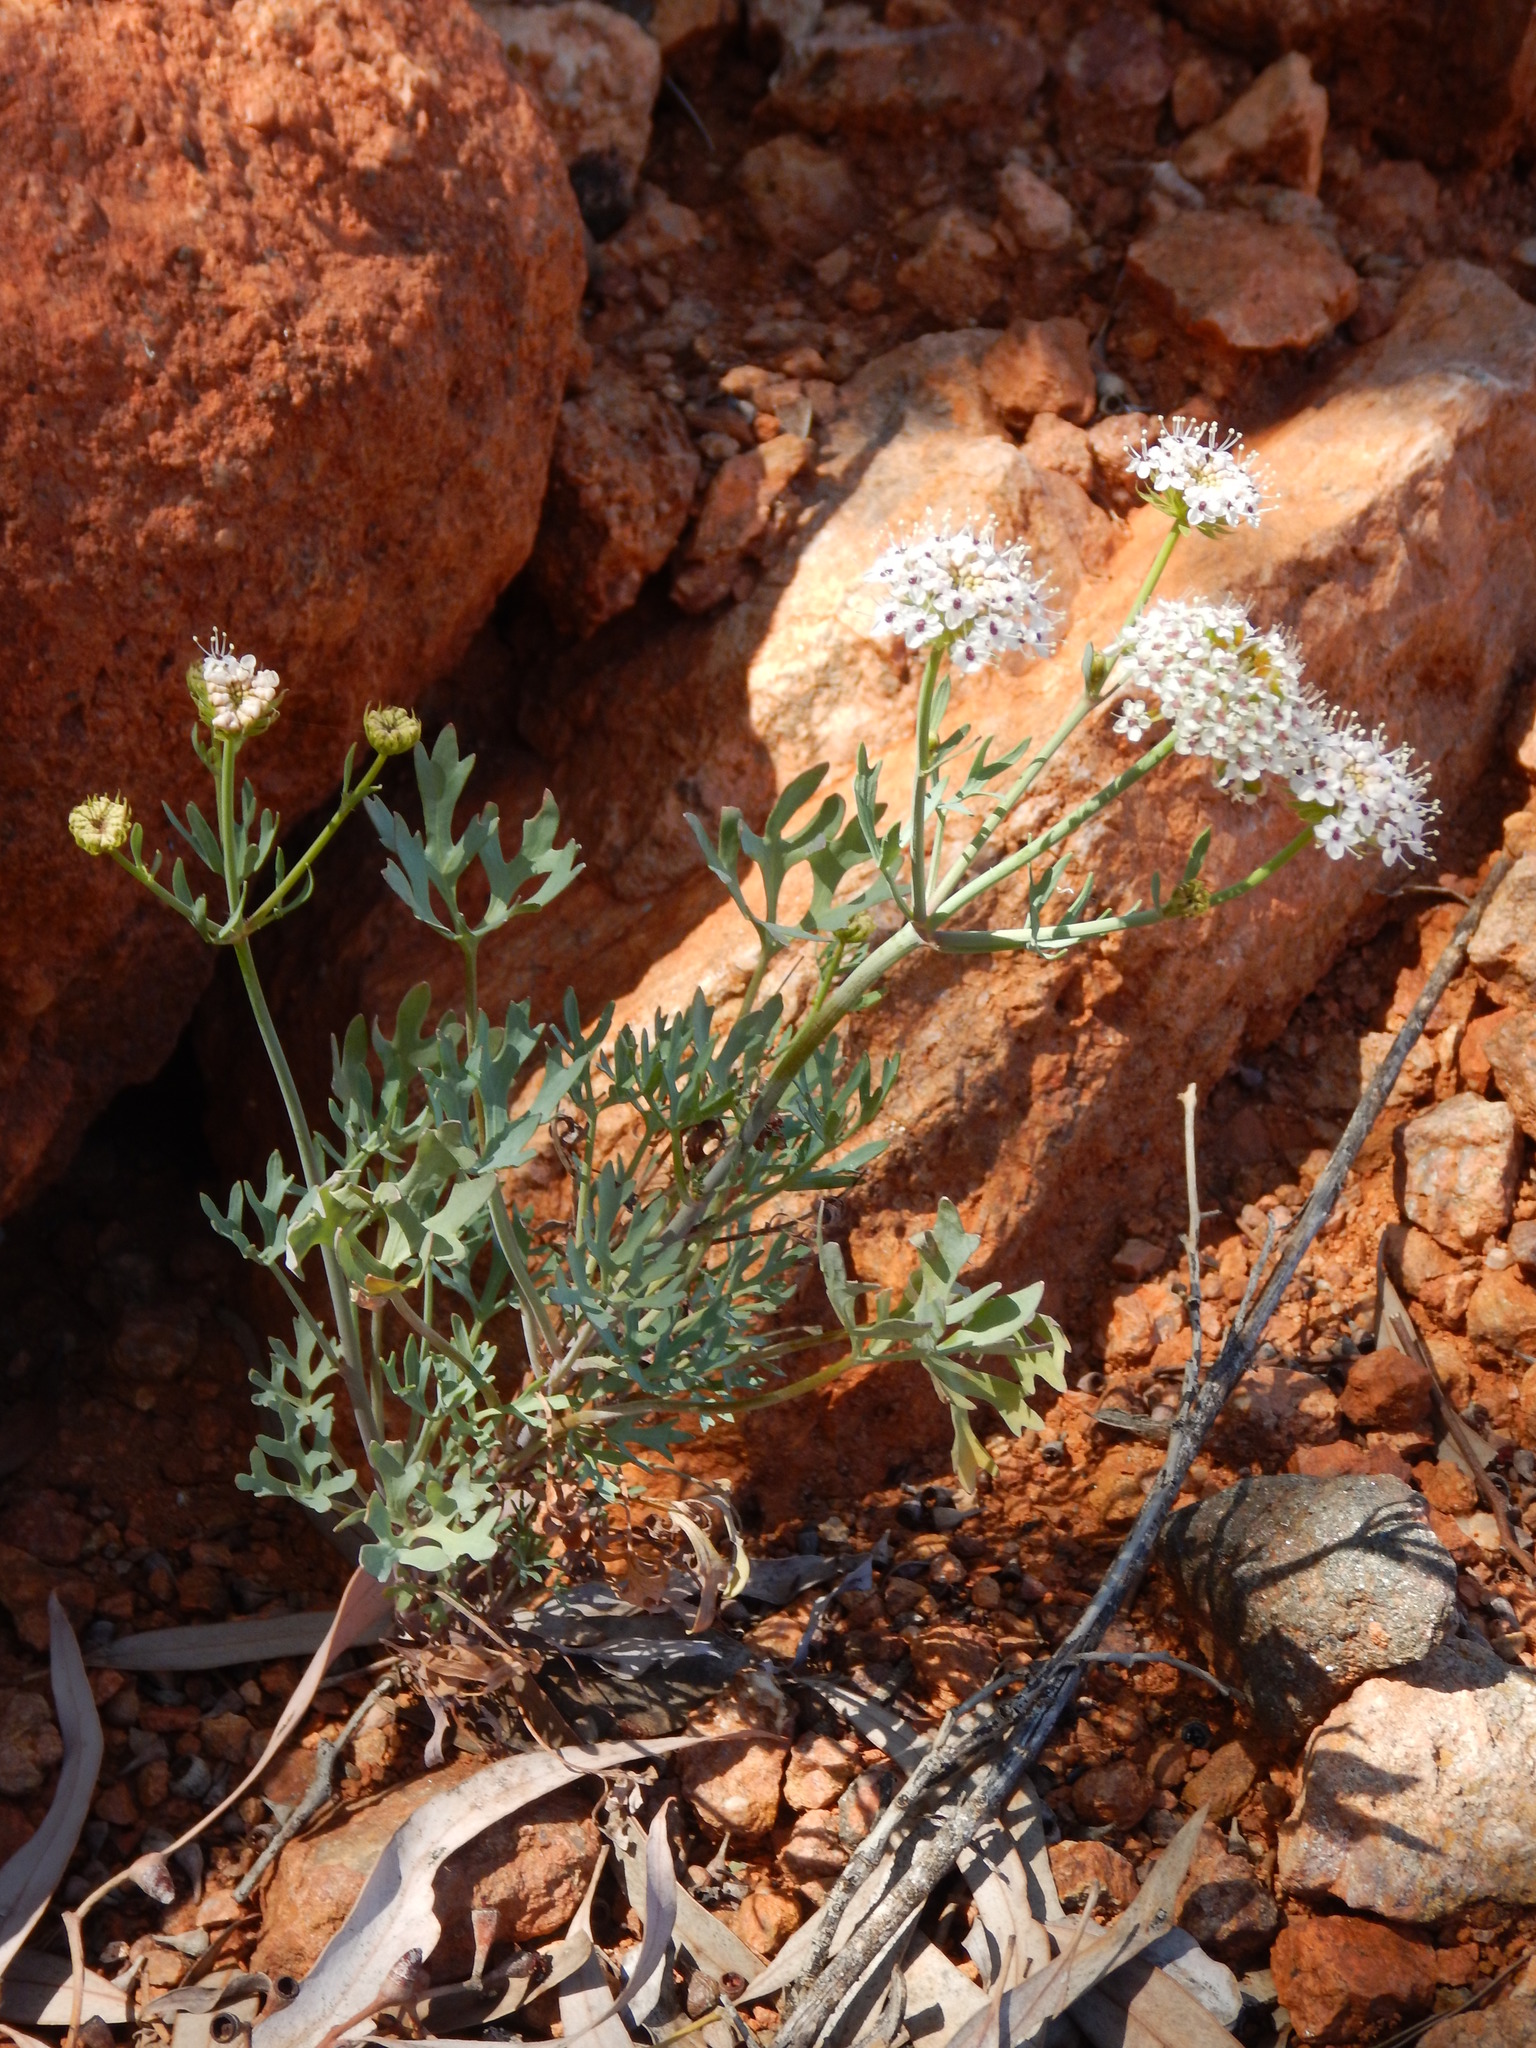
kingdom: Plantae
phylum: Tracheophyta
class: Magnoliopsida
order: Apiales
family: Araliaceae
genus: Trachymene
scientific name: Trachymene glaucifolia
